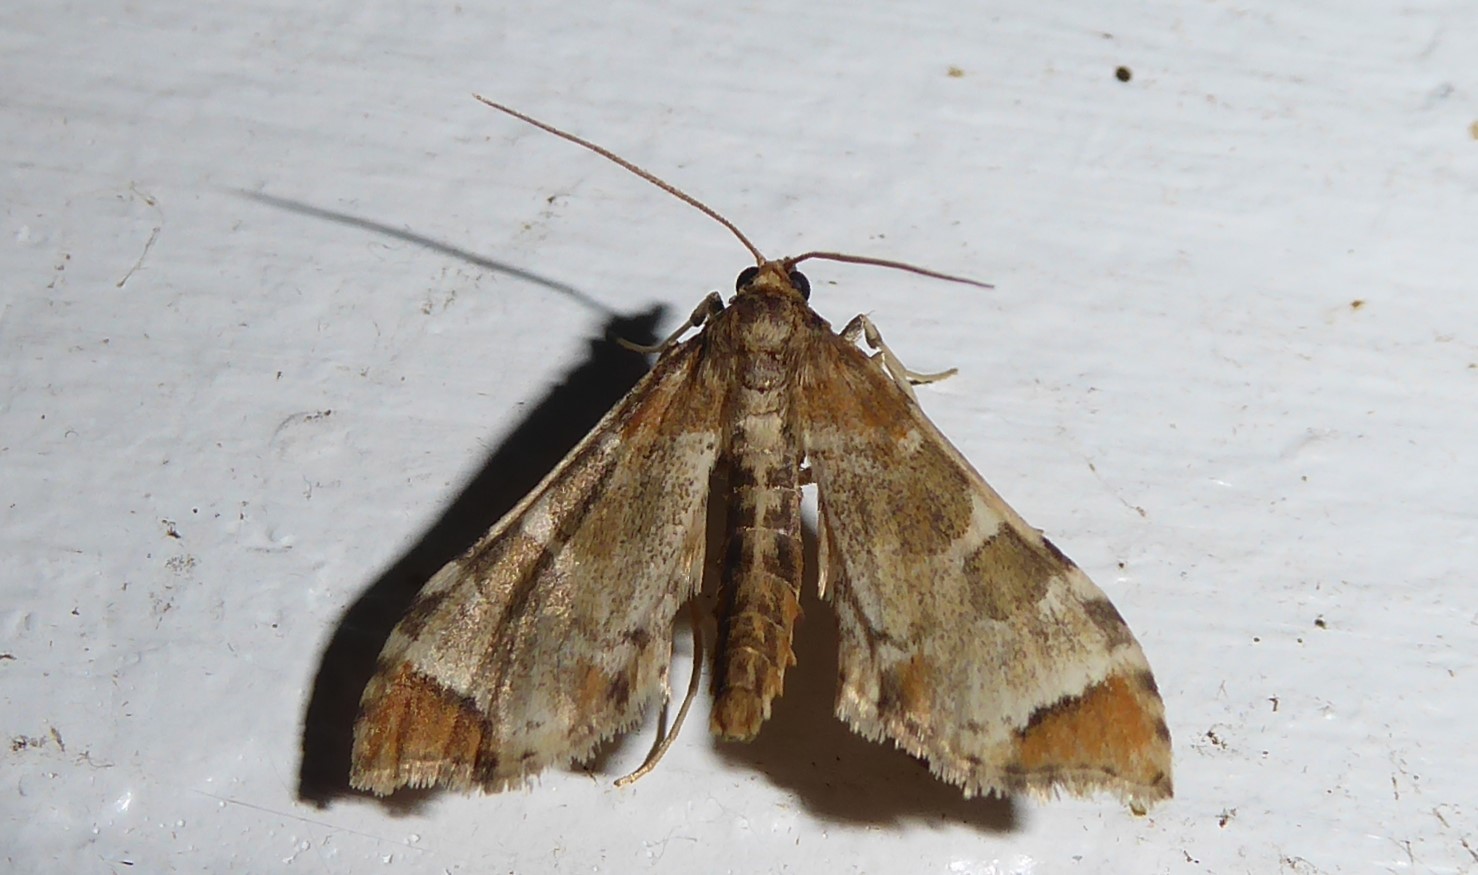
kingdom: Animalia
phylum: Arthropoda
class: Insecta
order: Lepidoptera
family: Crambidae
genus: Sceliodes
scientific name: Sceliodes cordalis
